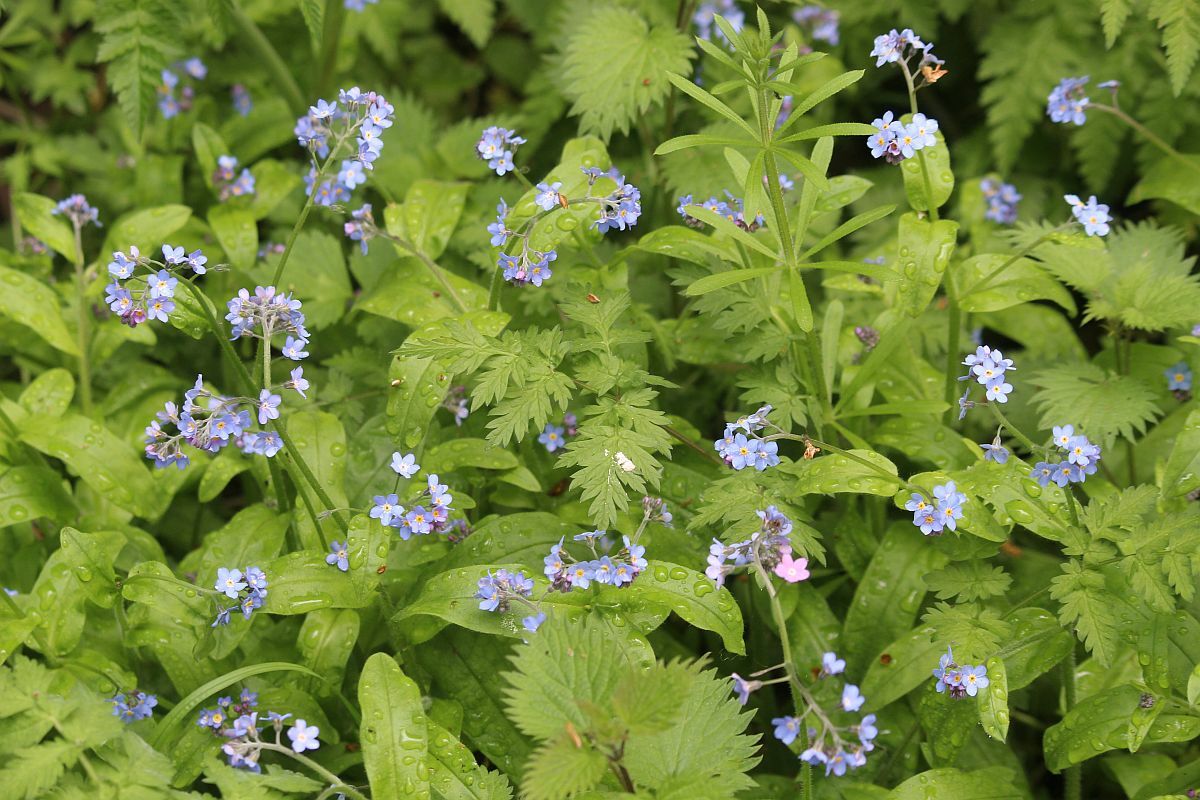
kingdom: Plantae
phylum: Tracheophyta
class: Magnoliopsida
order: Boraginales
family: Boraginaceae
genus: Myosotis
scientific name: Myosotis sylvatica
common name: Wood forget-me-not
